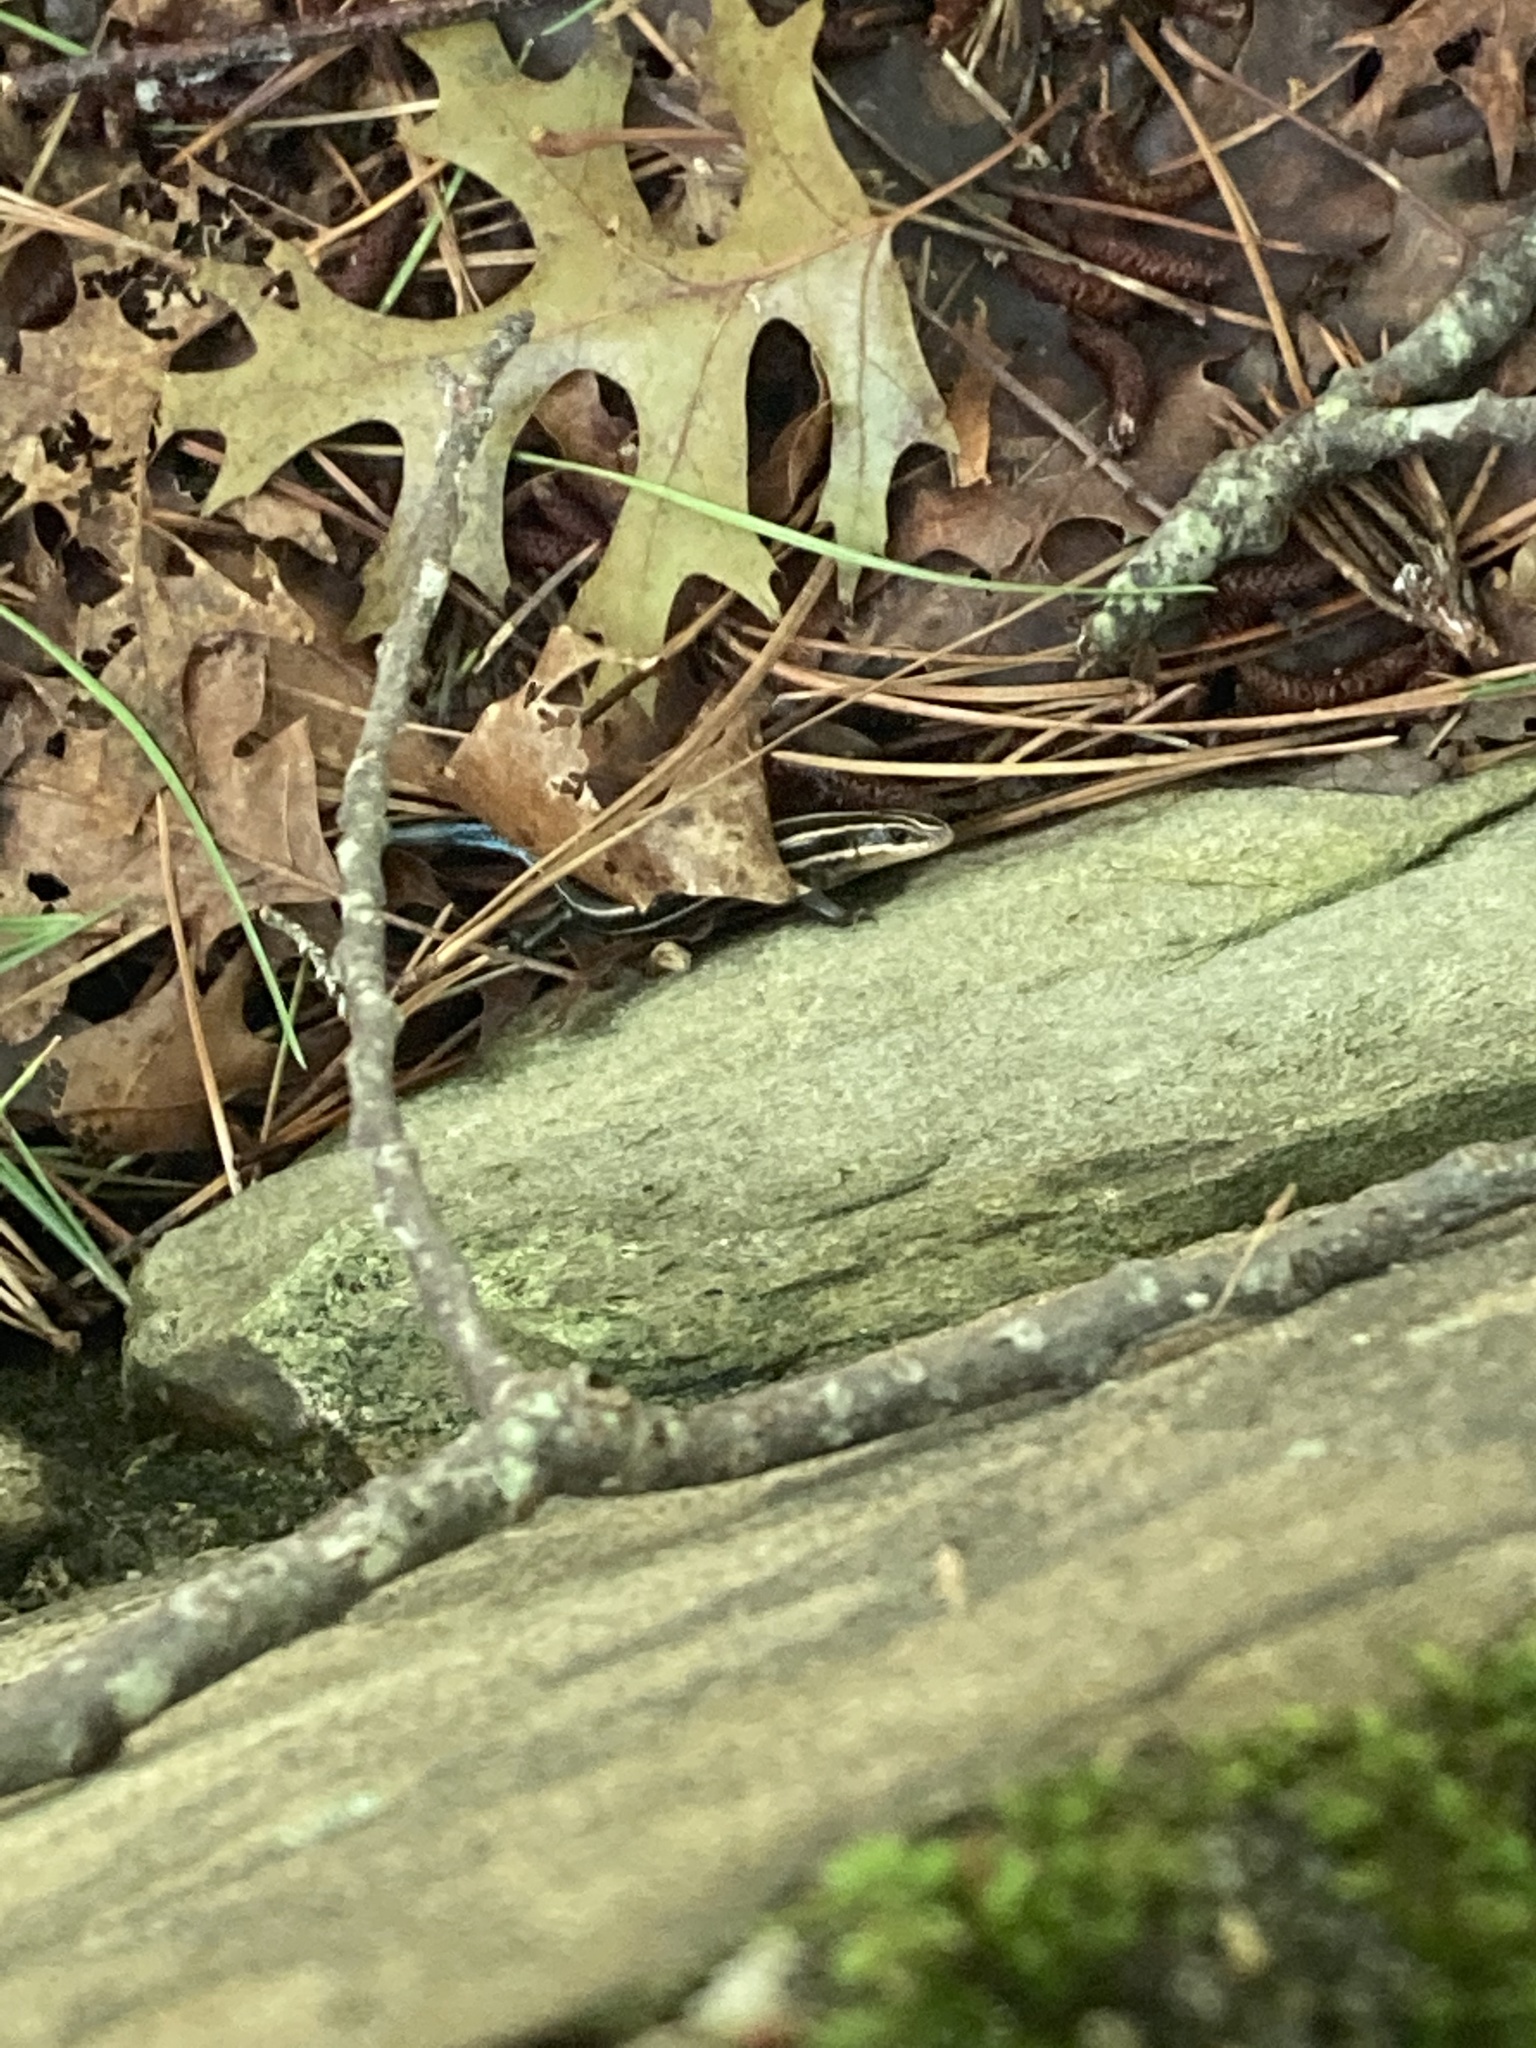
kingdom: Animalia
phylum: Chordata
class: Squamata
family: Scincidae
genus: Plestiodon
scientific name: Plestiodon fasciatus
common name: Five-lined skink
